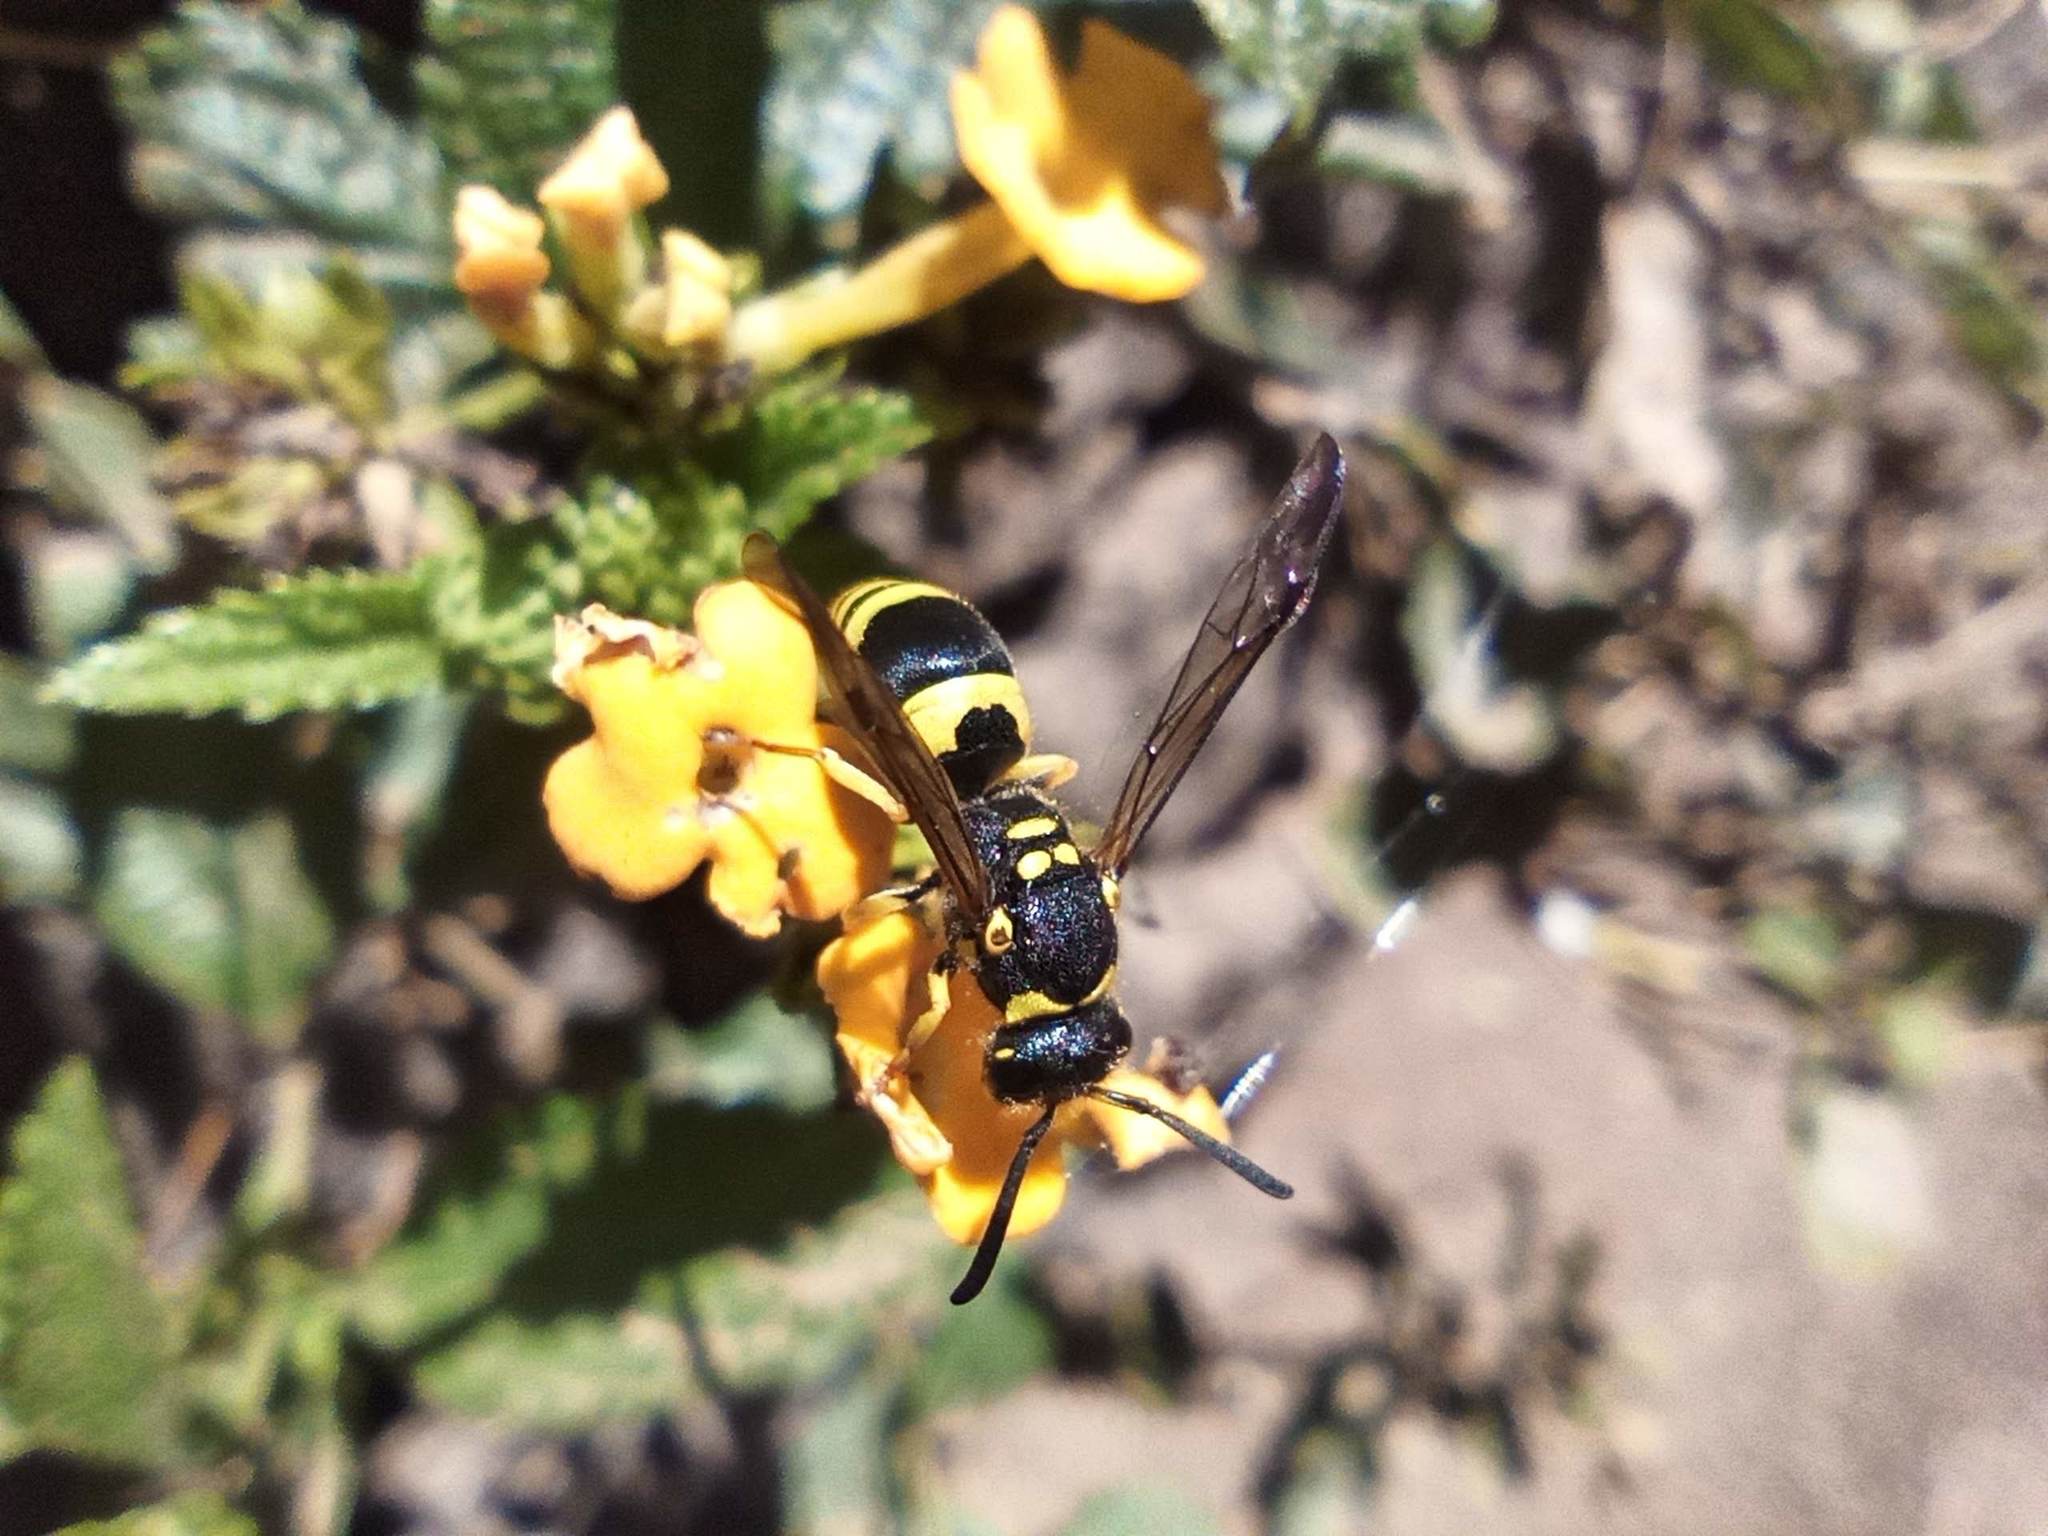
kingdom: Animalia
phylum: Arthropoda
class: Insecta
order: Hymenoptera
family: Vespidae
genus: Ancistrocerus
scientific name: Ancistrocerus gazella
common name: European tube wasp
